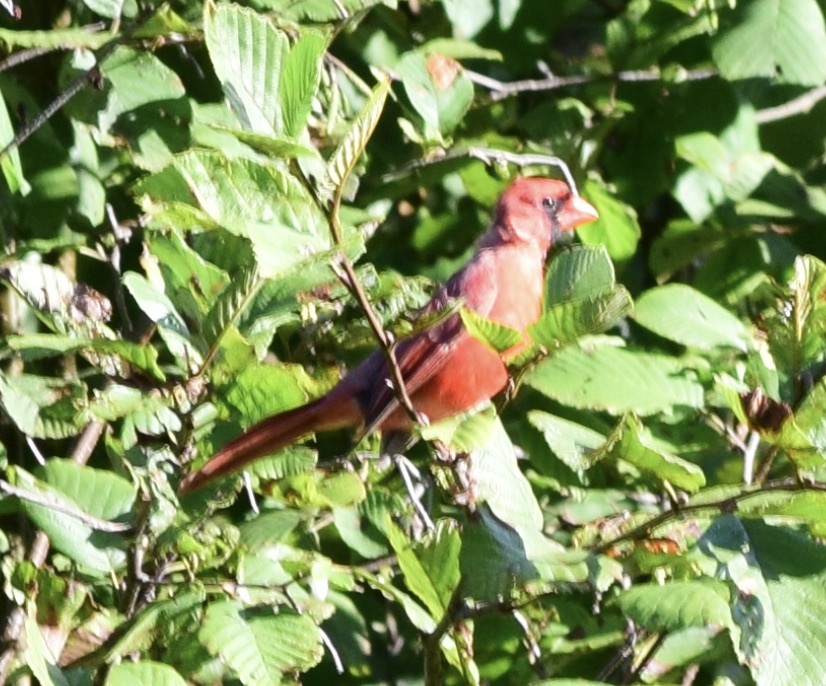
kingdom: Animalia
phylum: Chordata
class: Aves
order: Passeriformes
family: Cardinalidae
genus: Cardinalis
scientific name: Cardinalis cardinalis
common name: Northern cardinal
